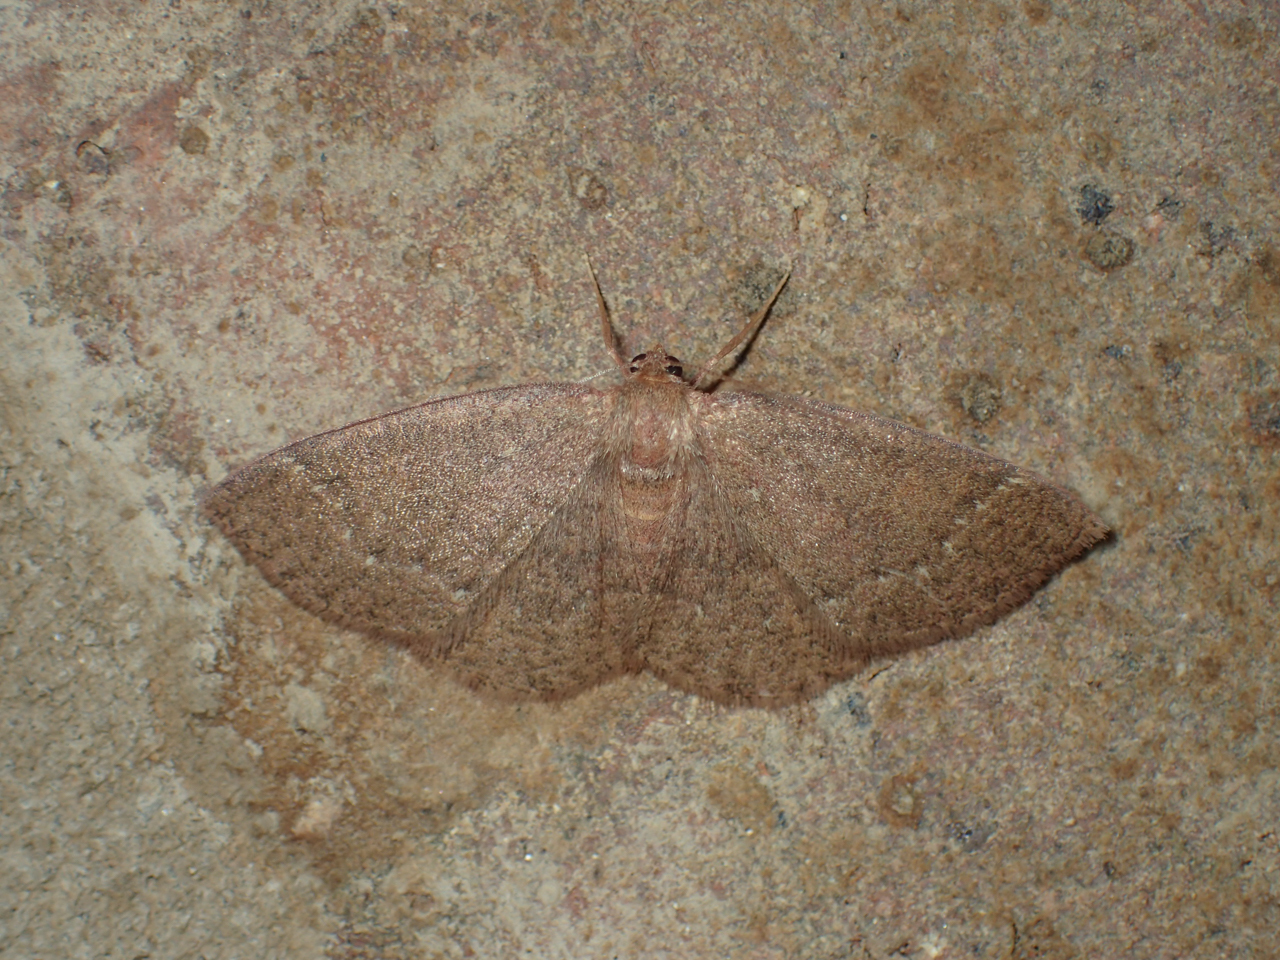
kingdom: Animalia
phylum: Arthropoda
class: Insecta
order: Lepidoptera
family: Geometridae
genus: Ilexia
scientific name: Ilexia intractata
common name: Black-dotted ruddy moth
